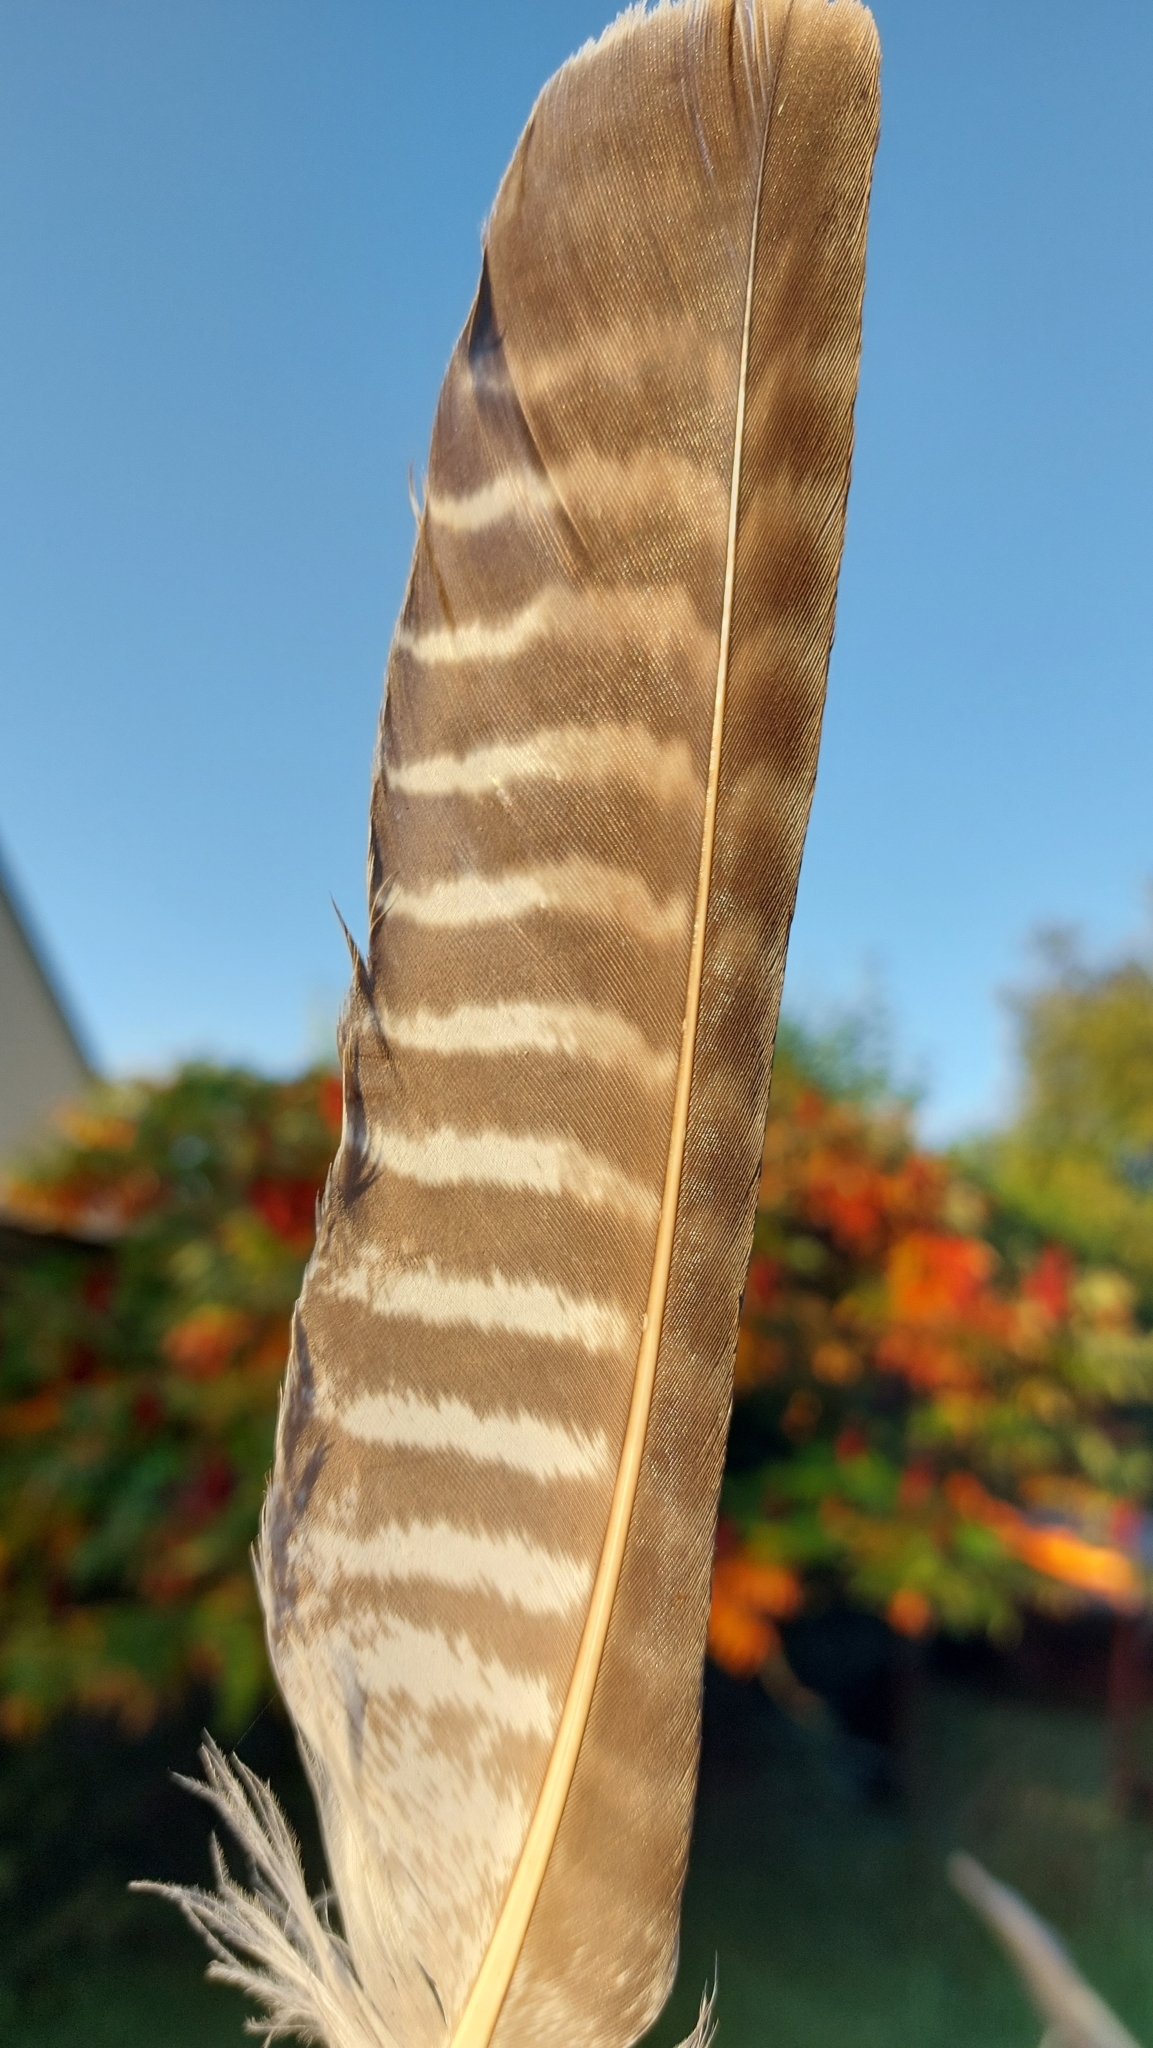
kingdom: Animalia
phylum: Chordata
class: Aves
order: Accipitriformes
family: Accipitridae
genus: Buteo
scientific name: Buteo buteo
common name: Common buzzard
